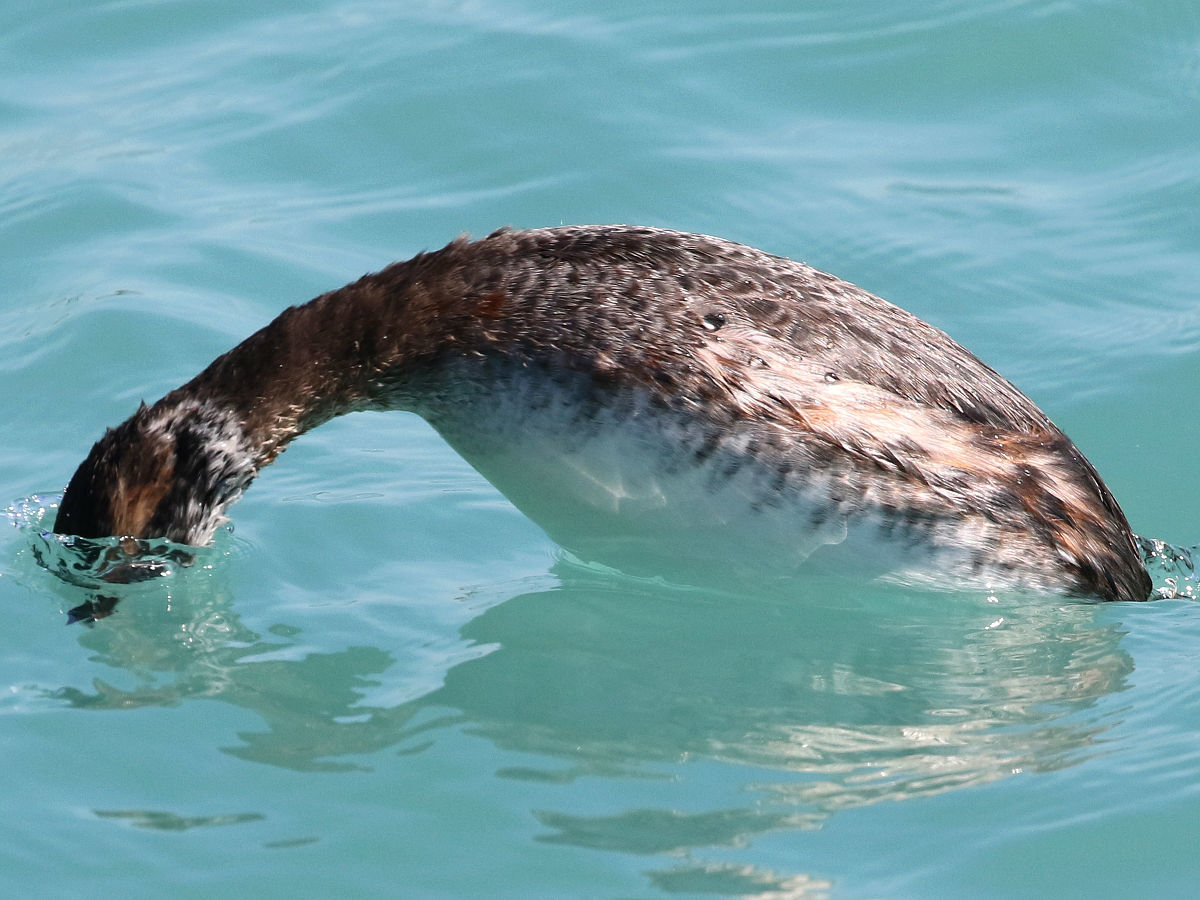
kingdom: Animalia
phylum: Chordata
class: Aves
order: Podicipediformes
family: Podicipedidae
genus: Podiceps
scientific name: Podiceps auritus
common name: Horned grebe
